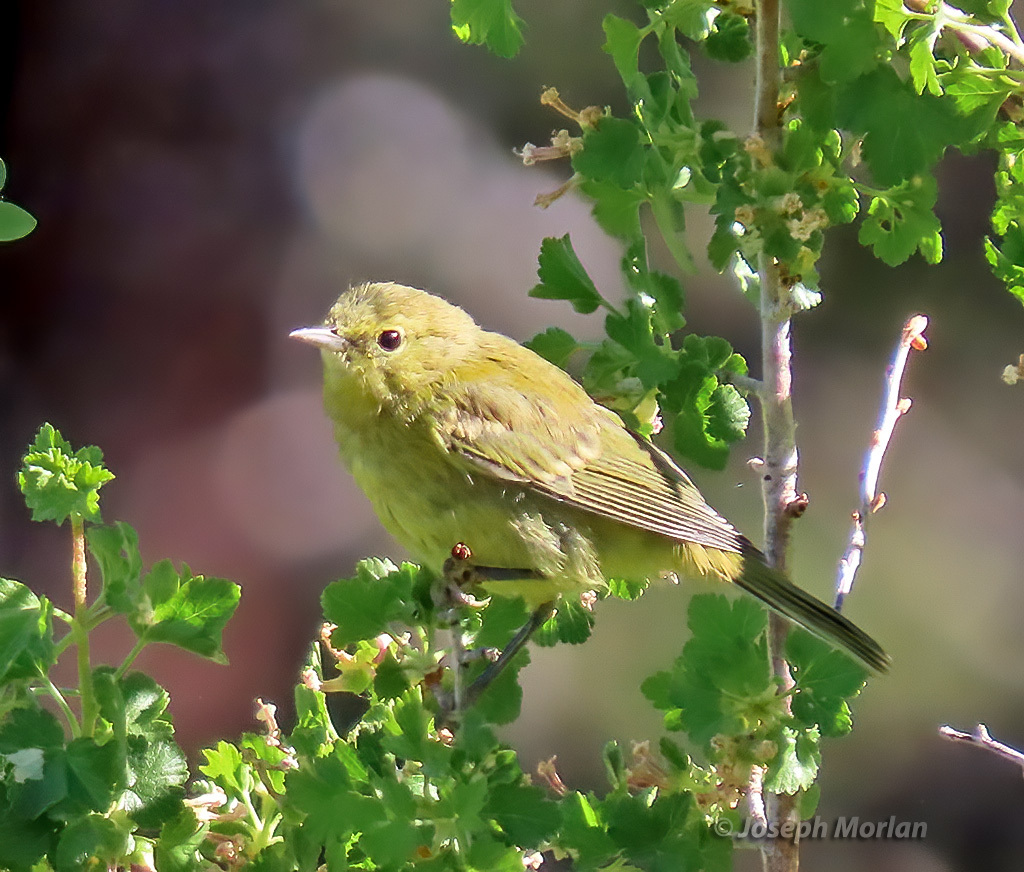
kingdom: Animalia
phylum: Chordata
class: Aves
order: Passeriformes
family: Parulidae
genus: Leiothlypis
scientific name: Leiothlypis celata
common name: Orange-crowned warbler
